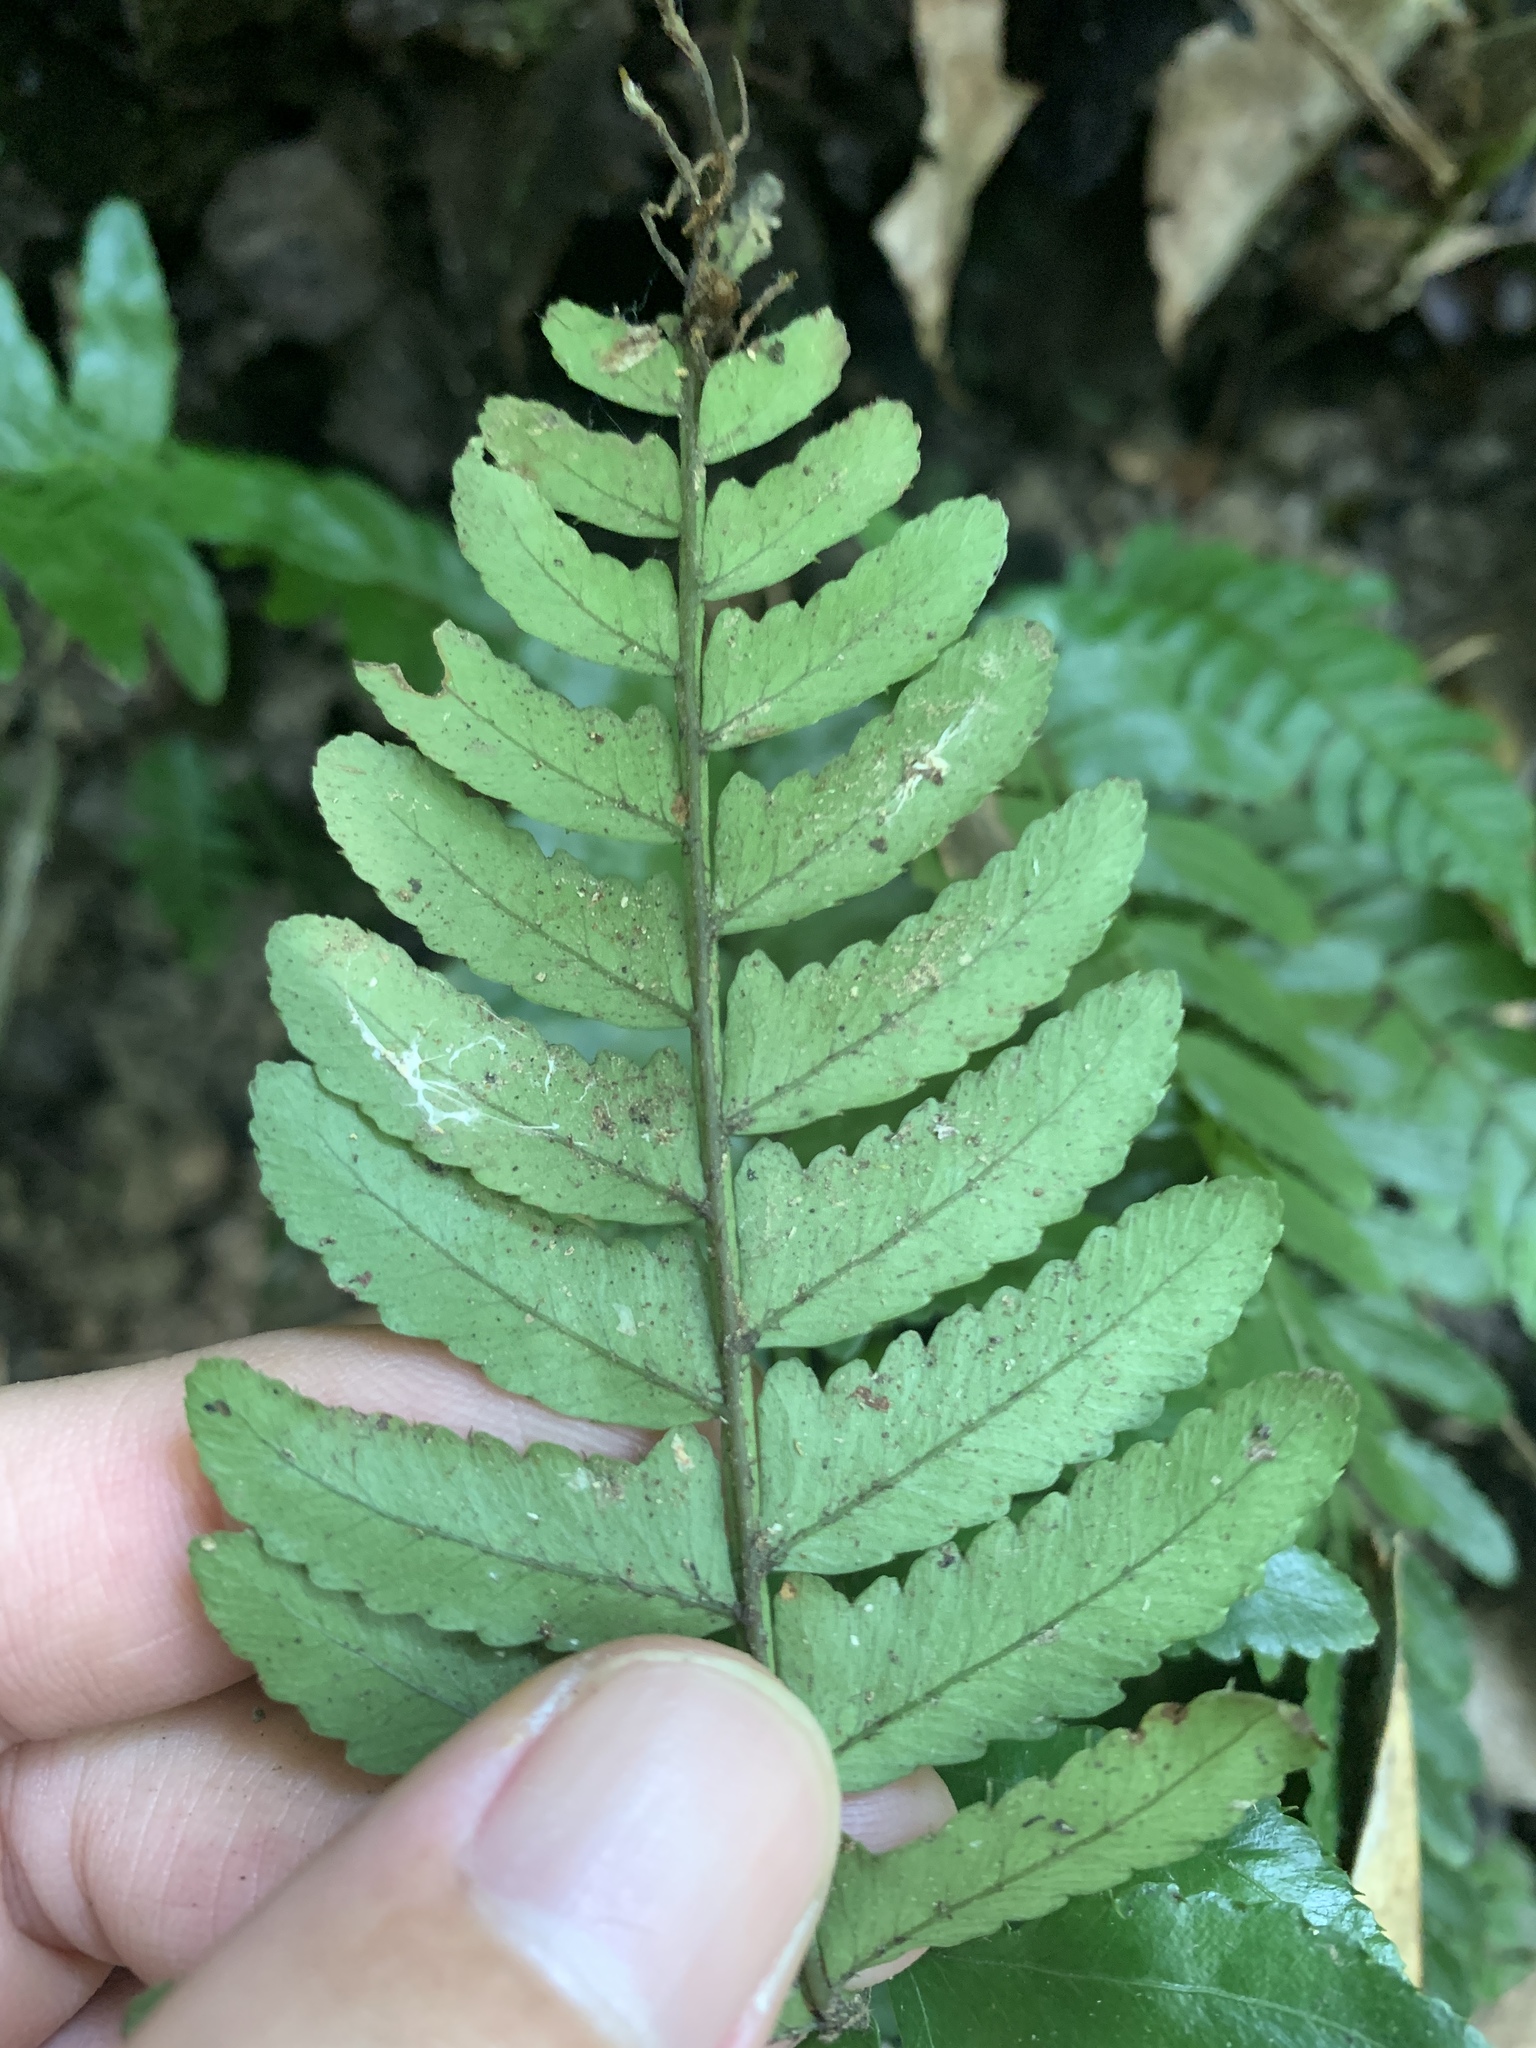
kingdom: Plantae
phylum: Tracheophyta
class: Polypodiopsida
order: Polypodiales
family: Dryopteridaceae
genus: Bolbitis
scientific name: Bolbitis appendiculata
